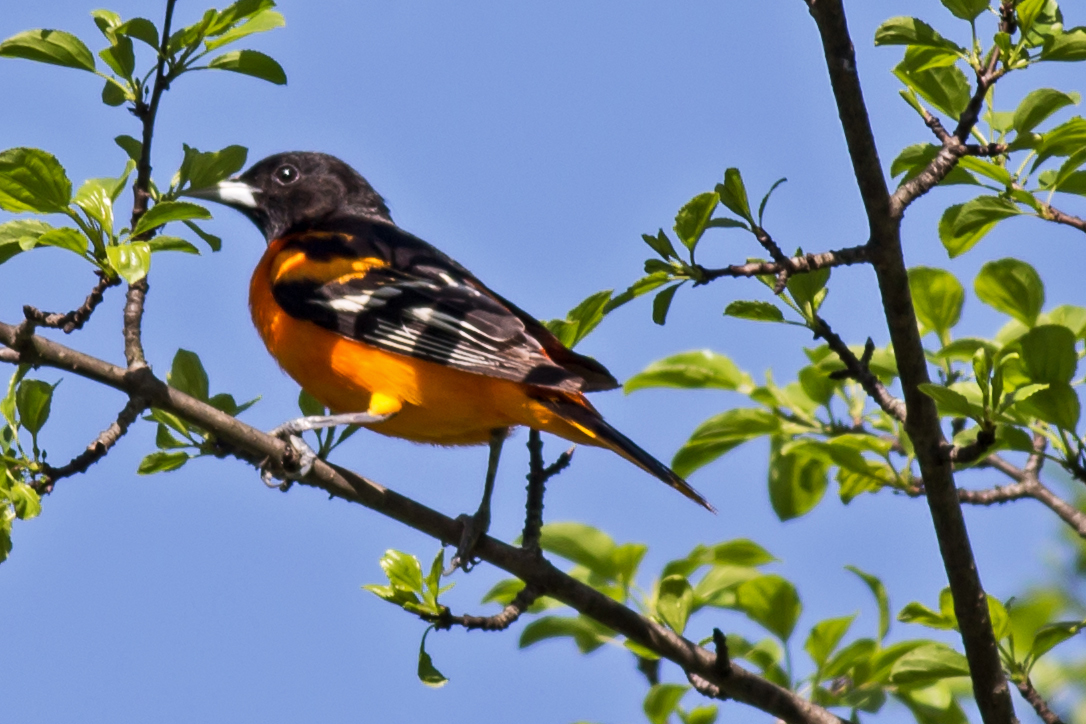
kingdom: Animalia
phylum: Chordata
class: Aves
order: Passeriformes
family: Icteridae
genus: Icterus
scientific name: Icterus galbula
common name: Baltimore oriole
